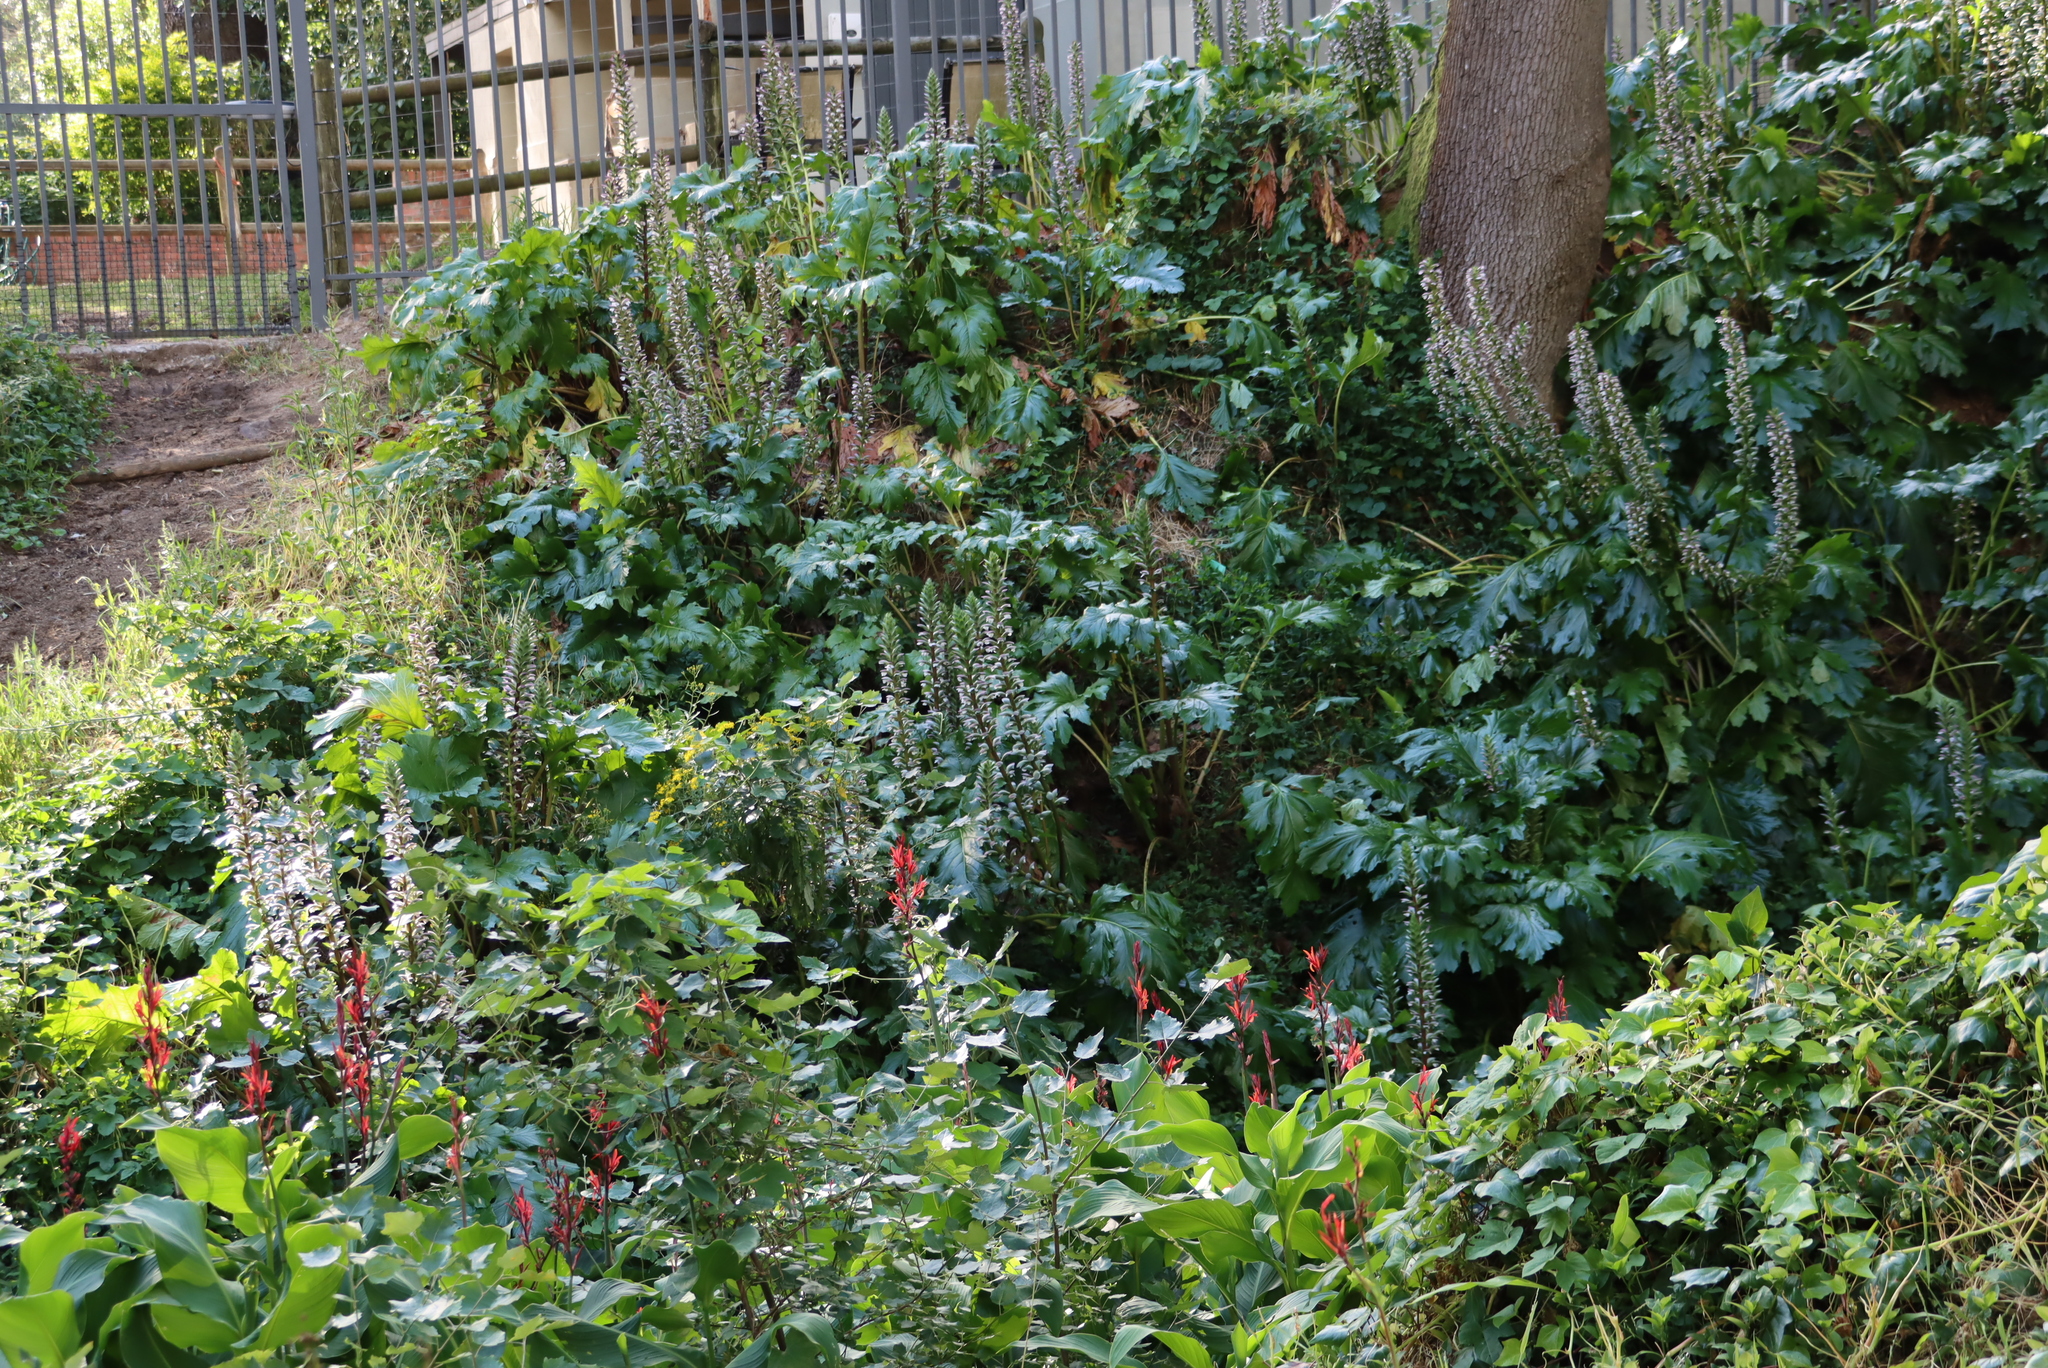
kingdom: Plantae
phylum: Tracheophyta
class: Magnoliopsida
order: Lamiales
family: Acanthaceae
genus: Acanthus
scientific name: Acanthus mollis
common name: Bear's-breech
